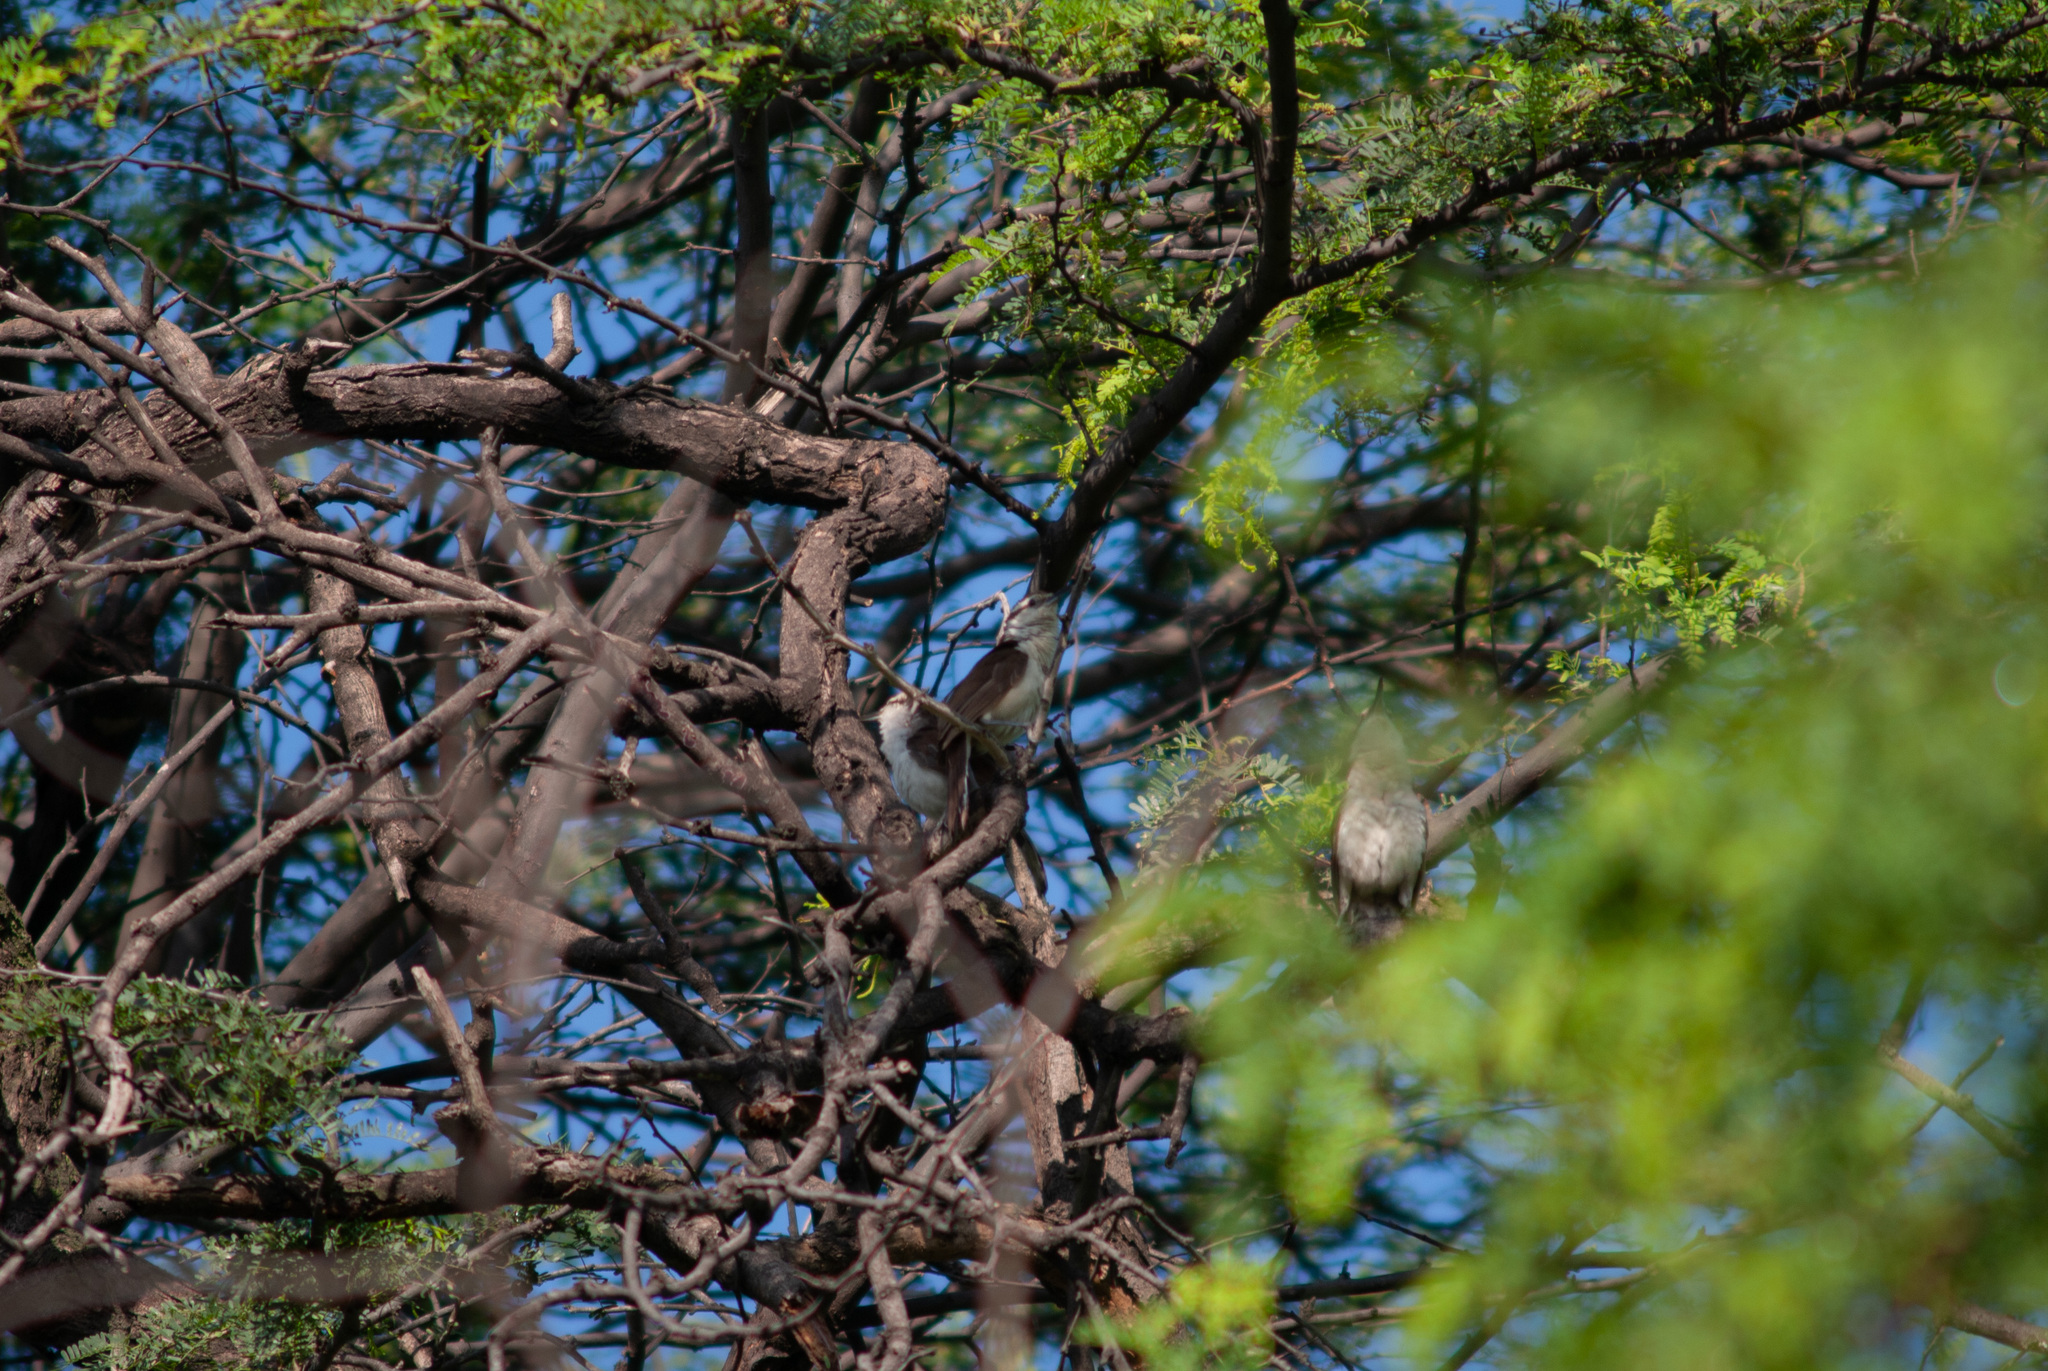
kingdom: Animalia
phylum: Chordata
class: Aves
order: Passeriformes
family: Troglodytidae
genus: Campylorhynchus
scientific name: Campylorhynchus griseus
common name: Bicolored wren
